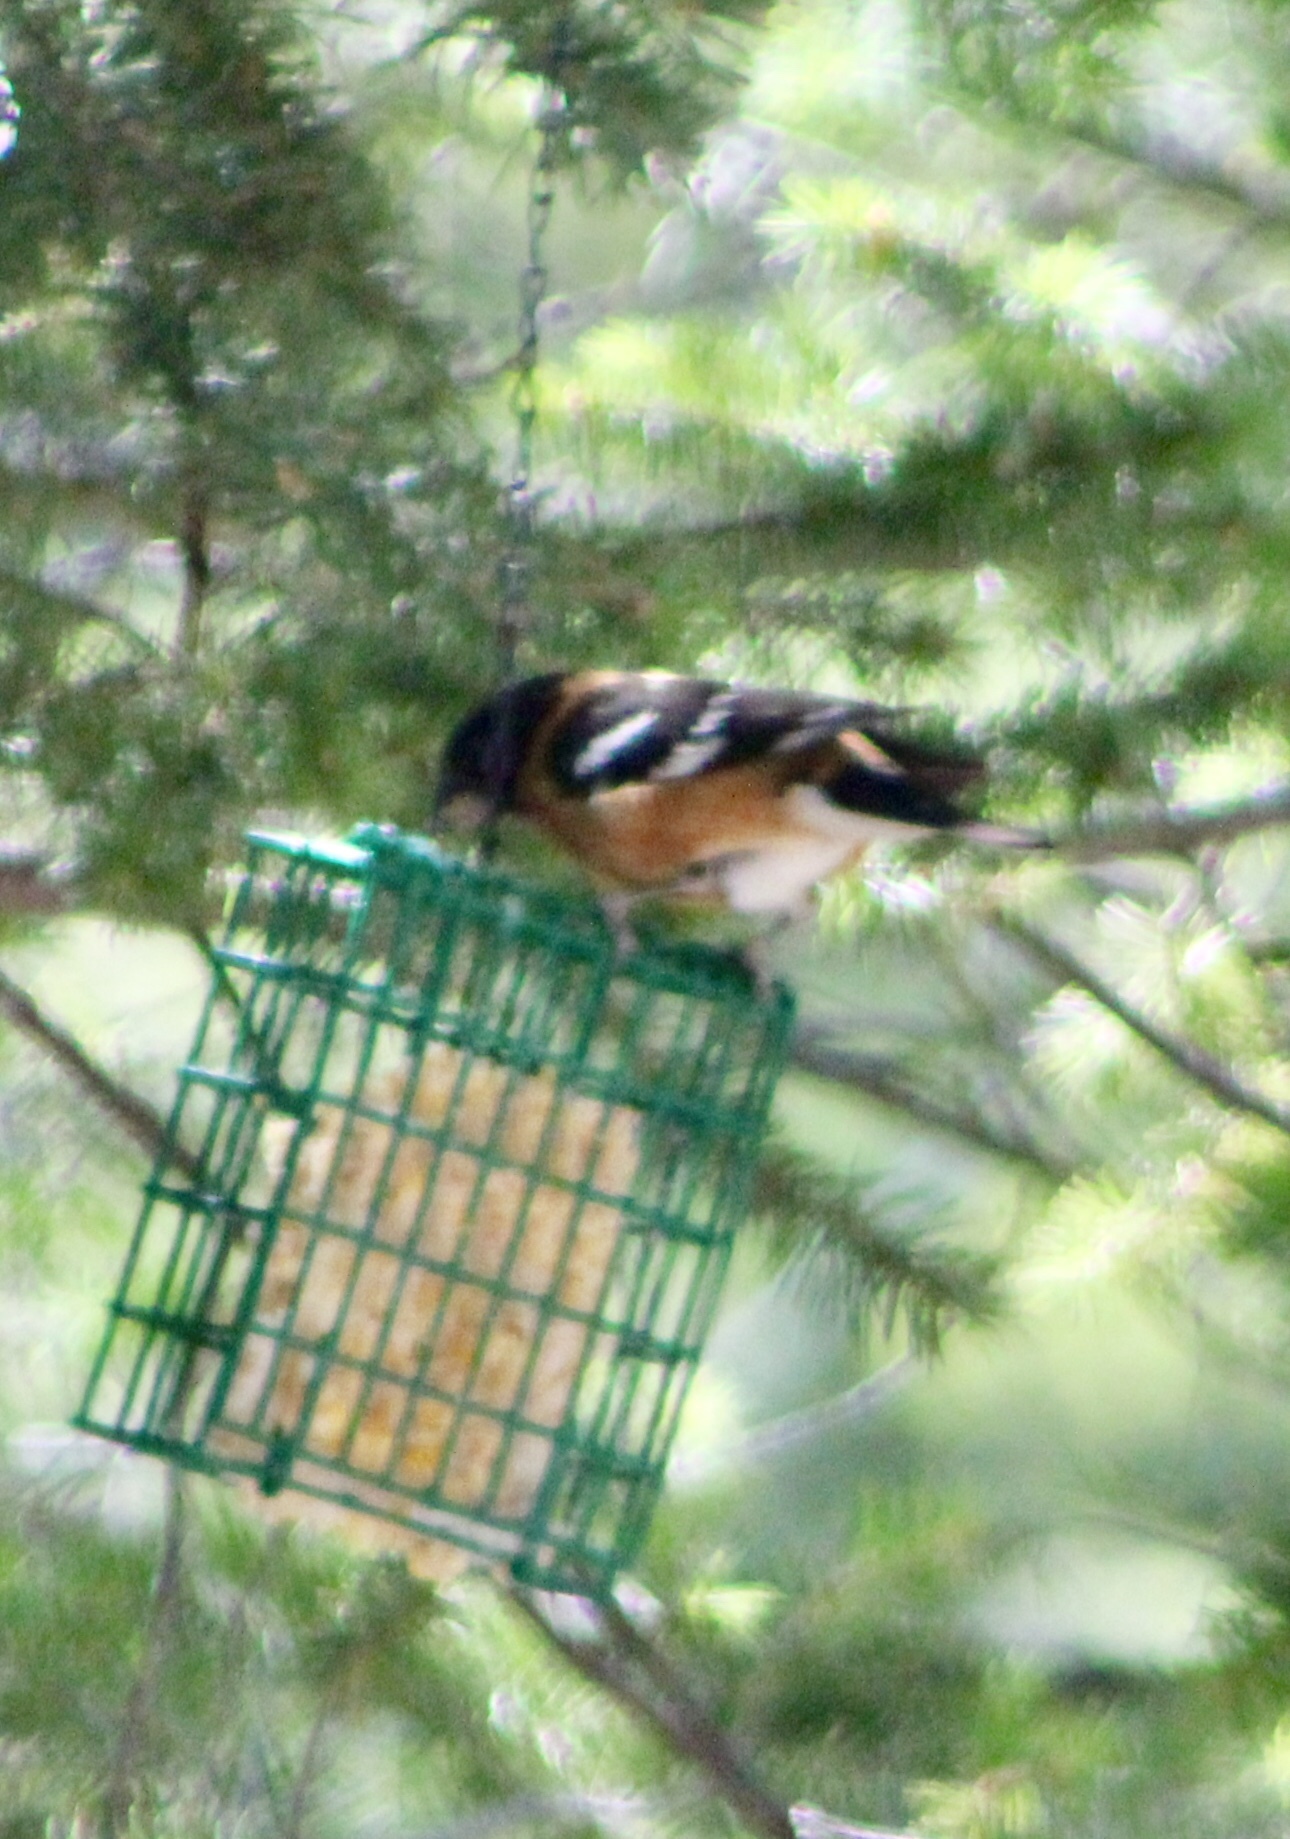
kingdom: Animalia
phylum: Chordata
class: Aves
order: Passeriformes
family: Cardinalidae
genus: Pheucticus
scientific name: Pheucticus melanocephalus
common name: Black-headed grosbeak
